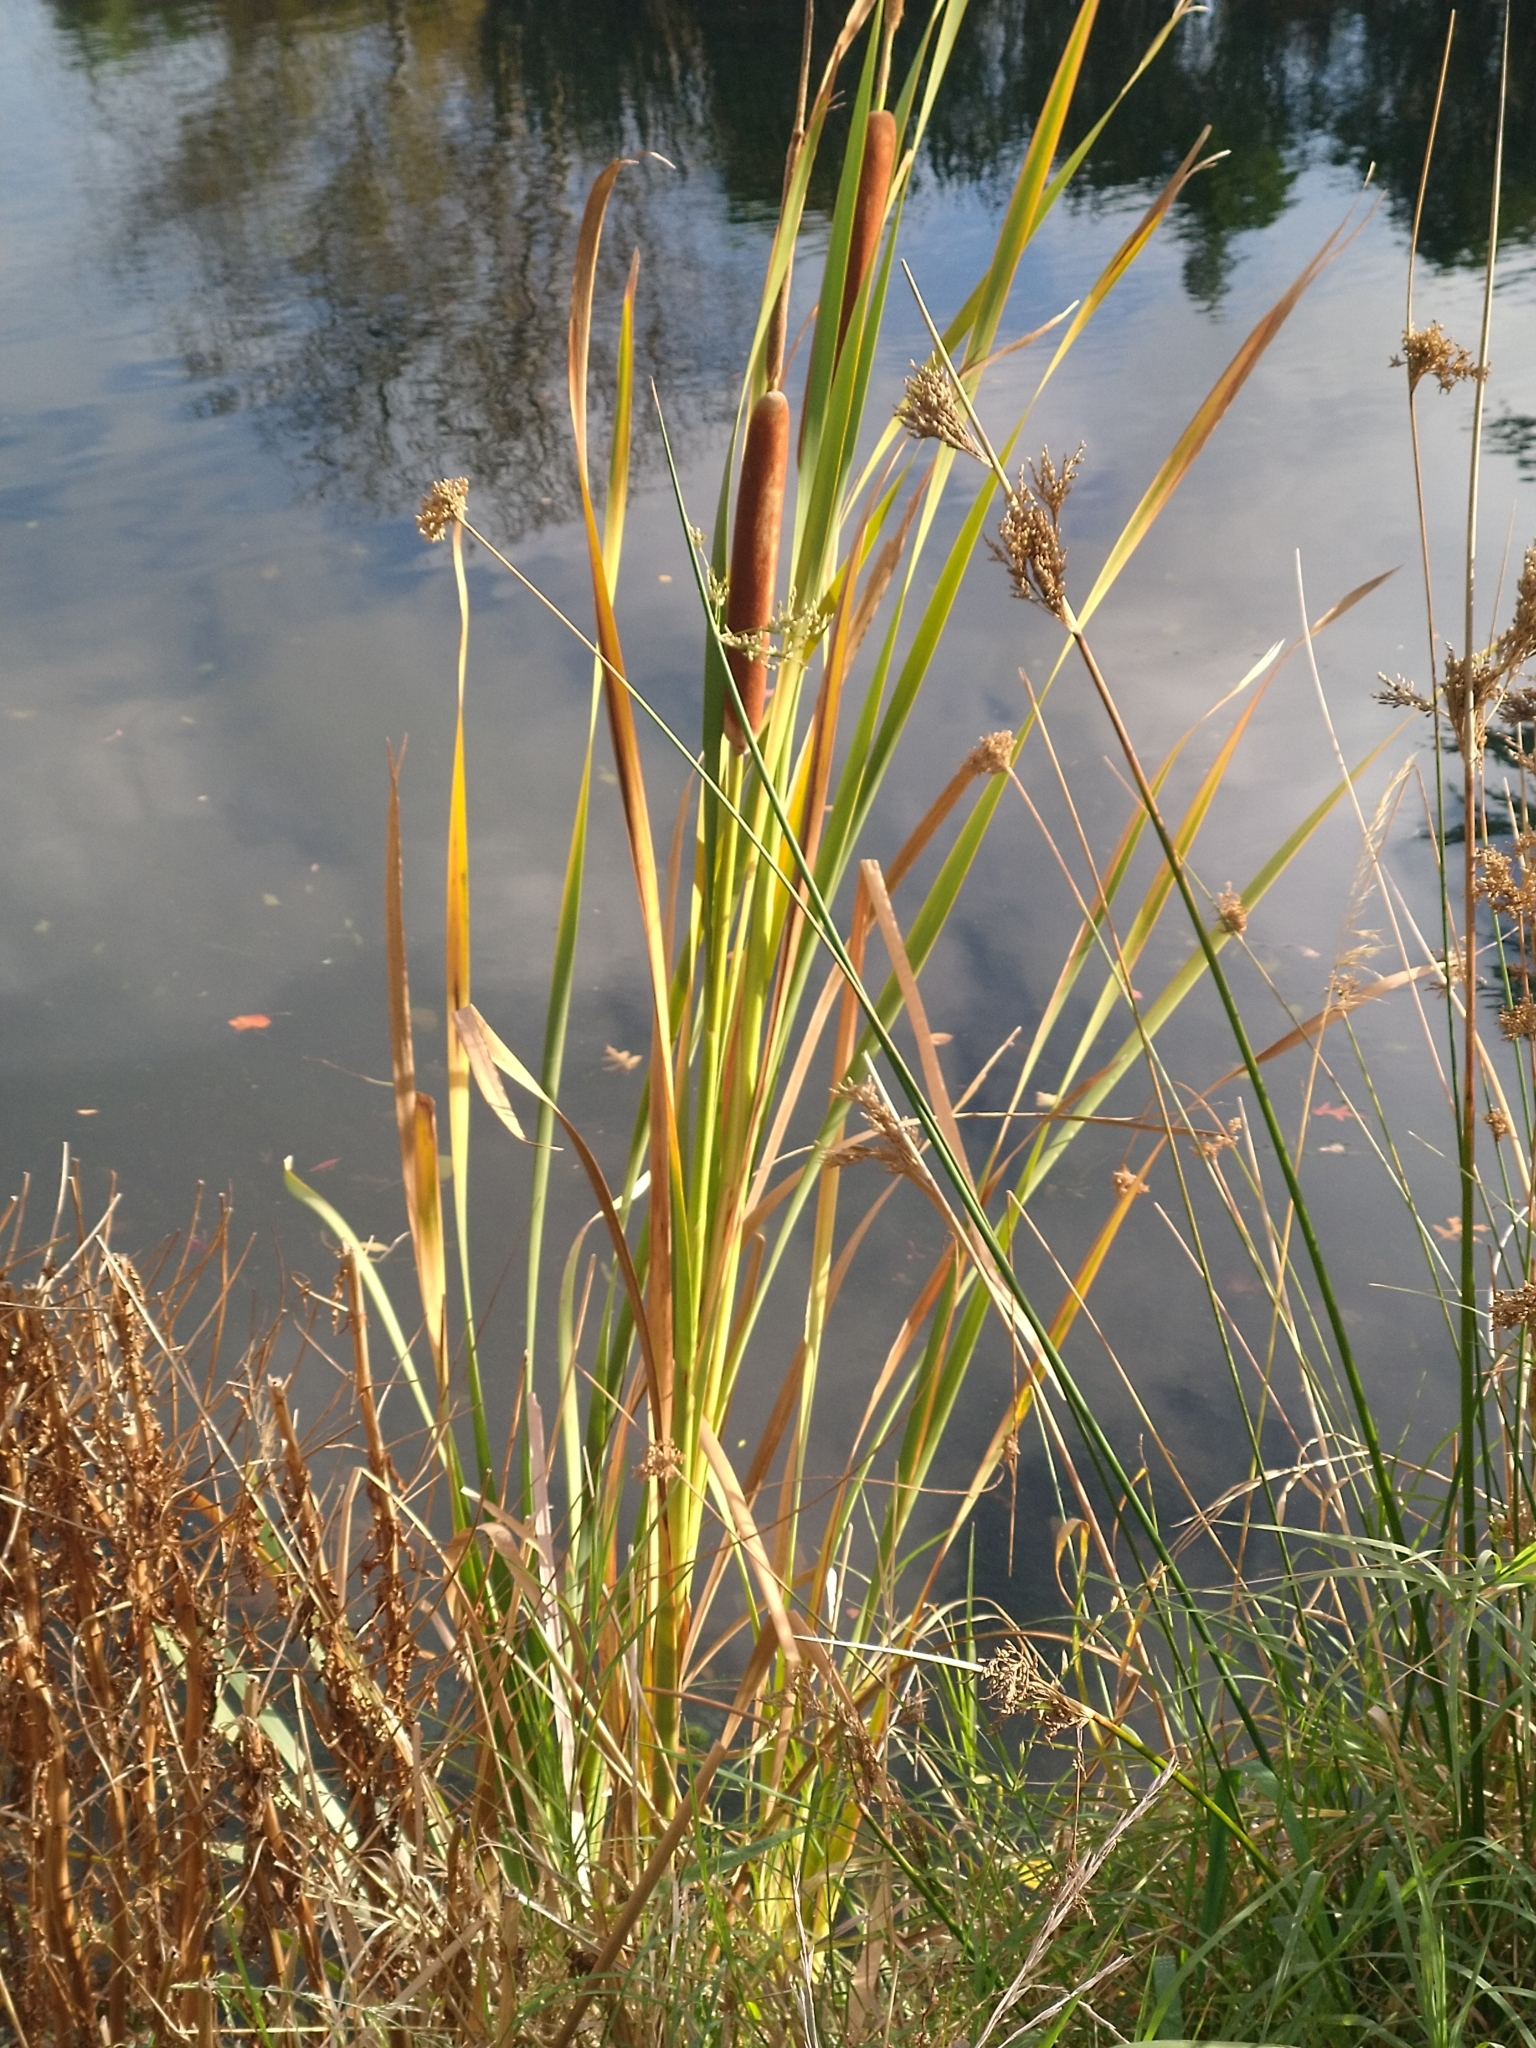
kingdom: Plantae
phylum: Tracheophyta
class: Liliopsida
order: Poales
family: Typhaceae
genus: Typha
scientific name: Typha orientalis
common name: Bullrush
